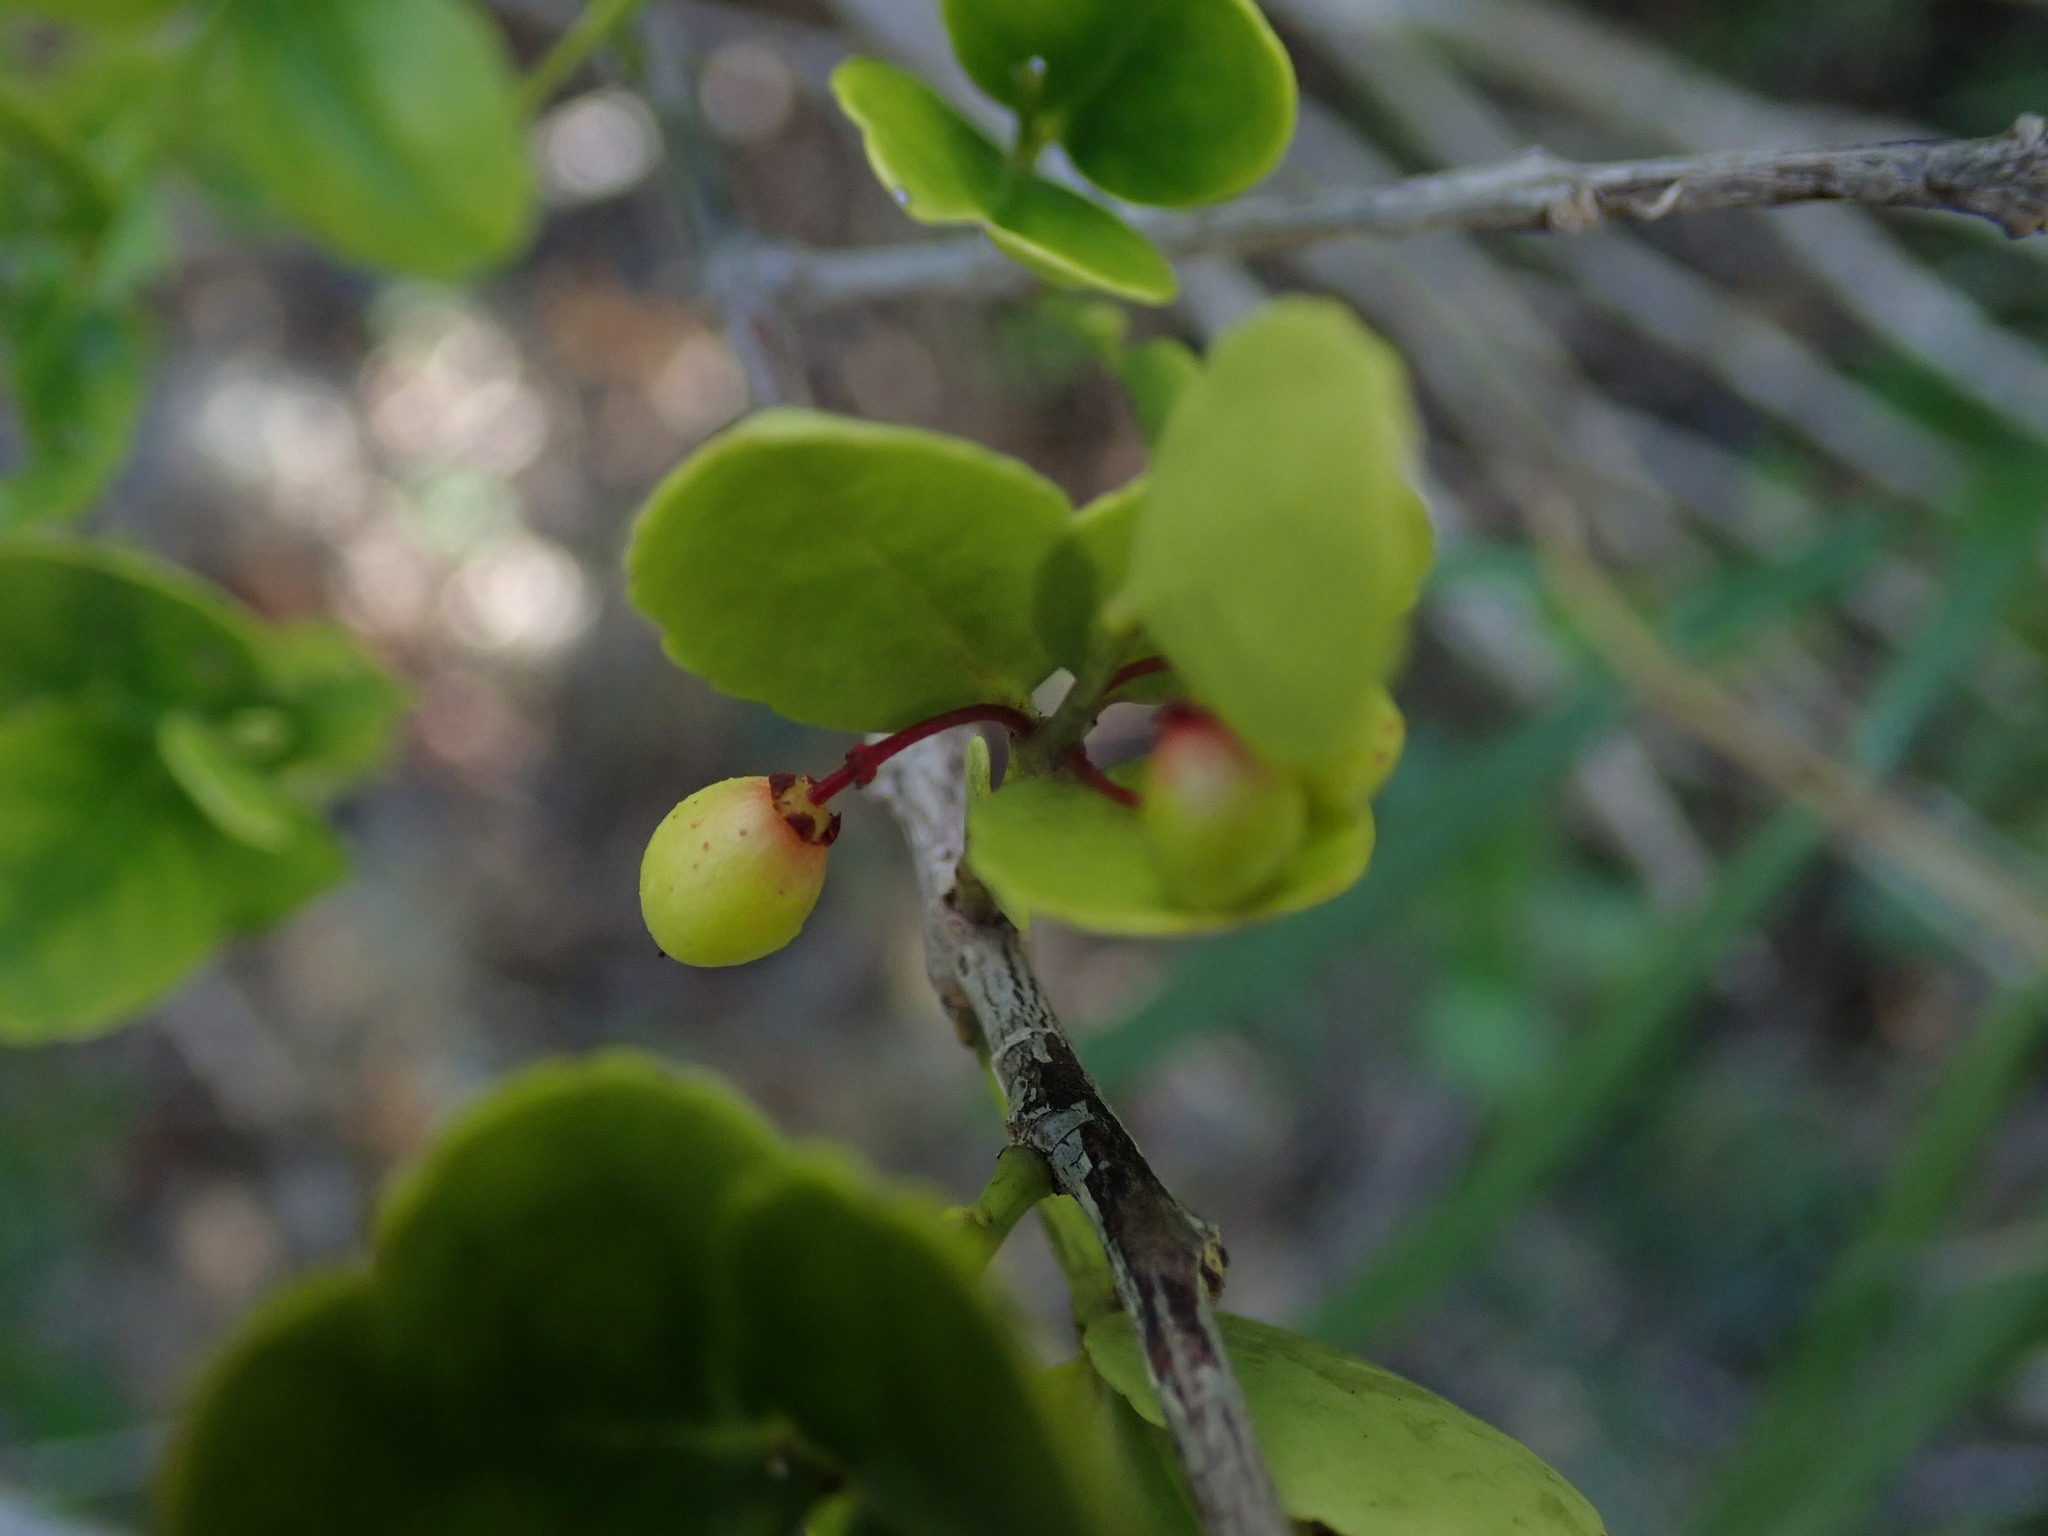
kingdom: Plantae
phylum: Tracheophyta
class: Magnoliopsida
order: Celastrales
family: Celastraceae
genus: Crossopetalum
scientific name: Crossopetalum rhacoma
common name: Maidenberry
